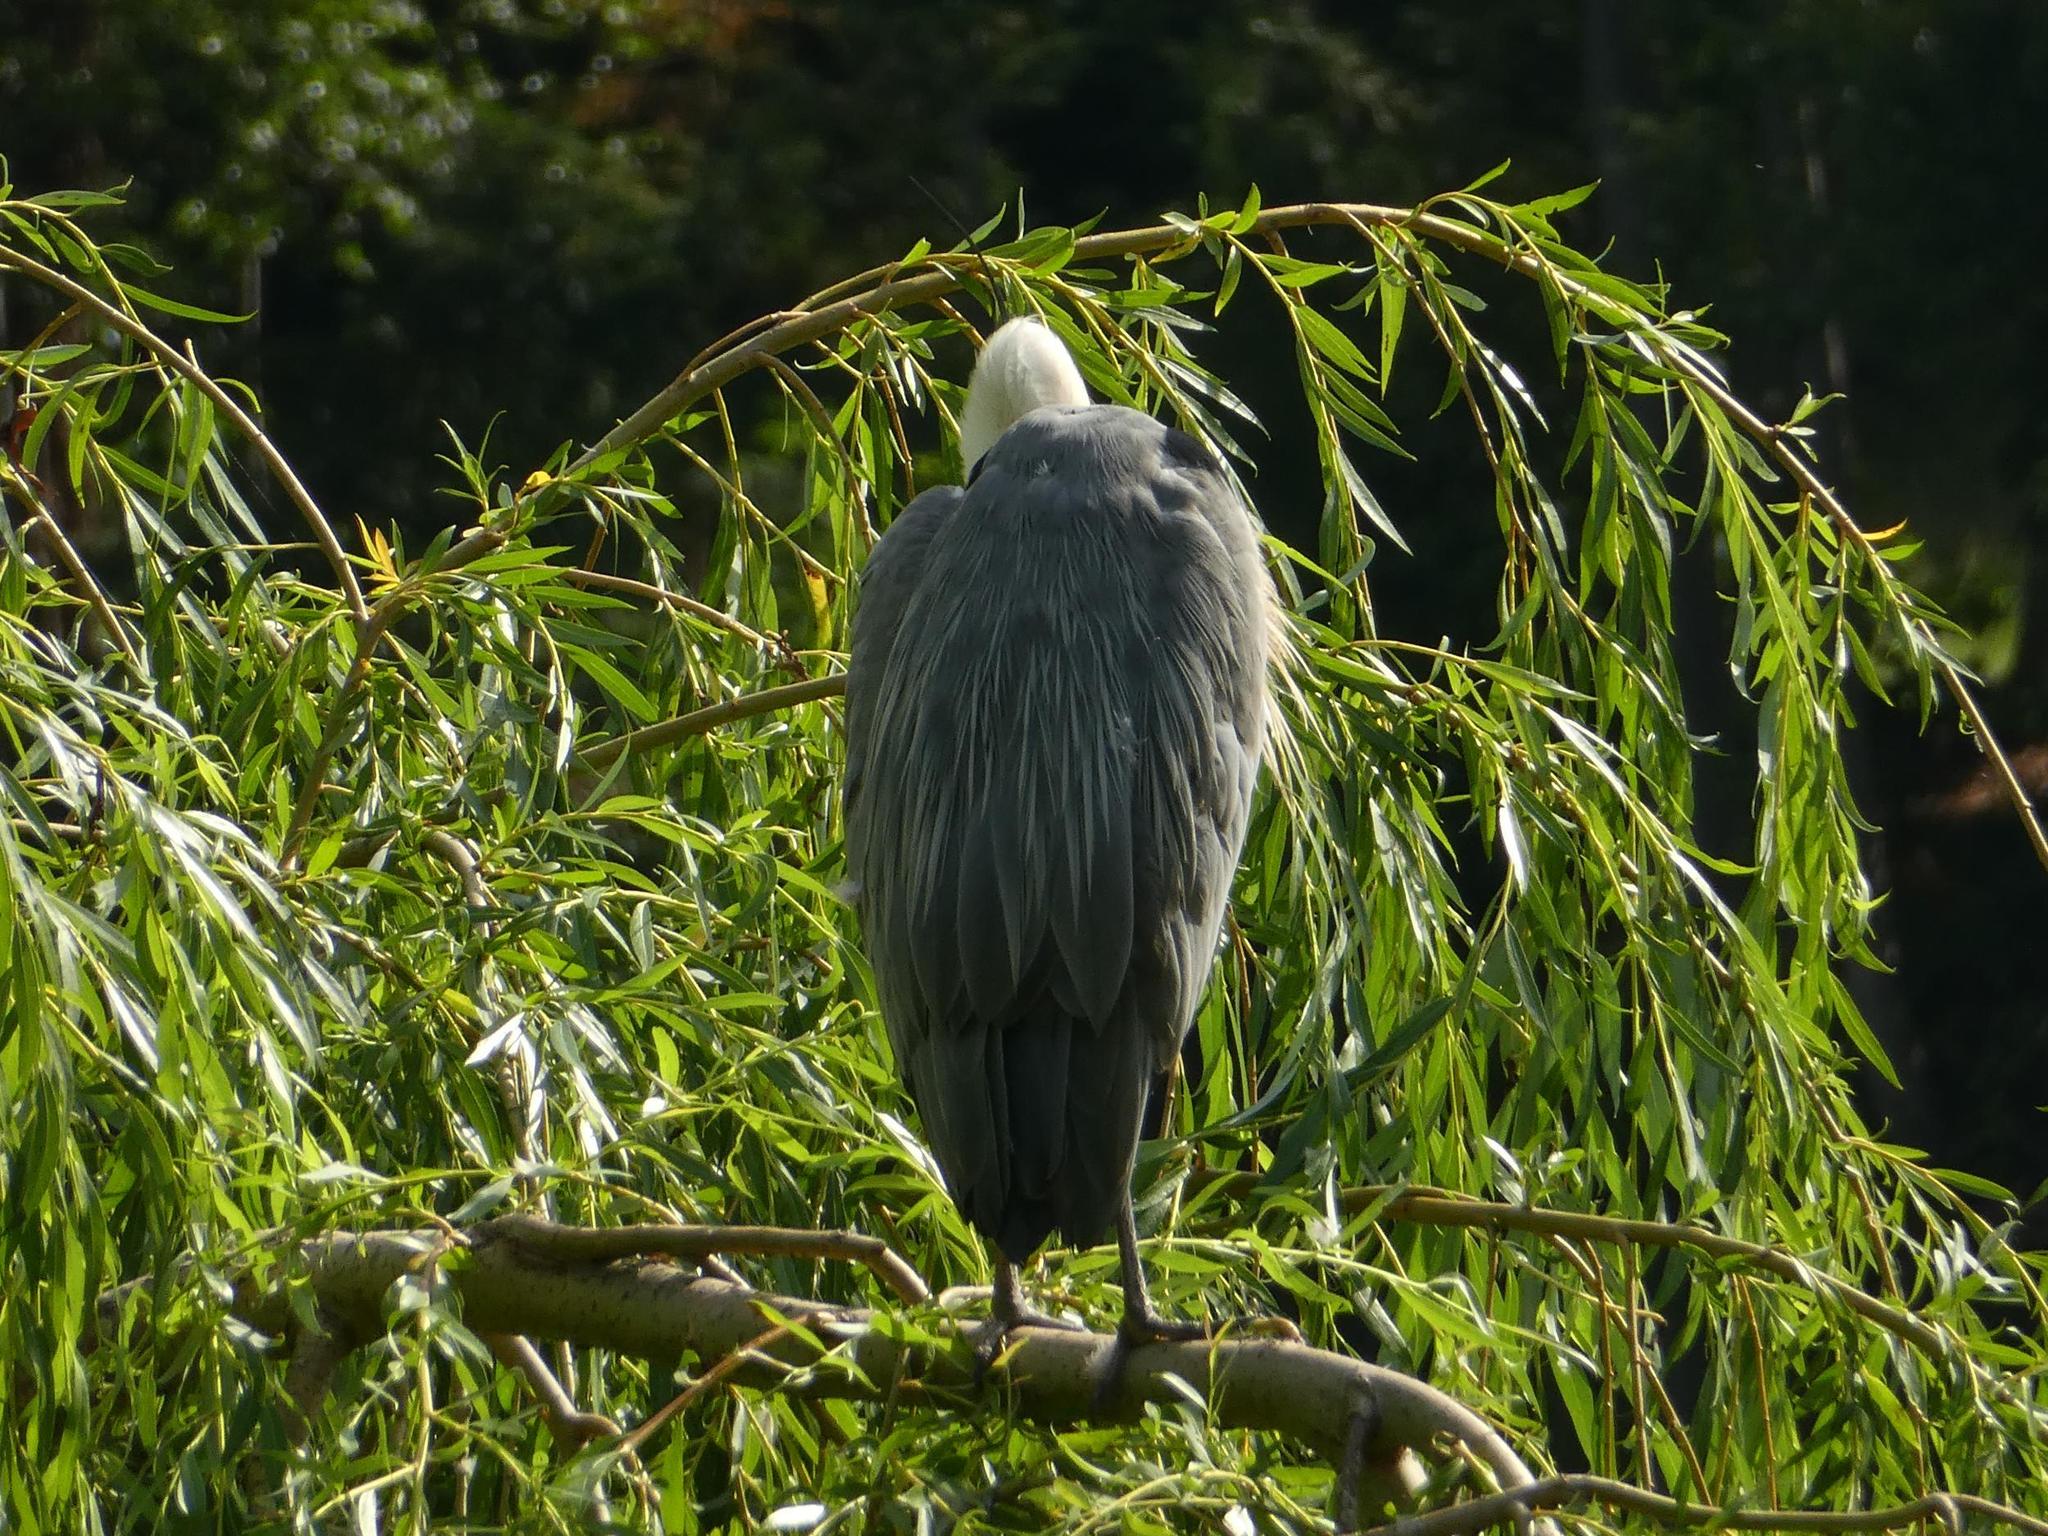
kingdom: Animalia
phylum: Chordata
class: Aves
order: Pelecaniformes
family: Ardeidae
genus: Ardea
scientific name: Ardea cinerea
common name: Grey heron
